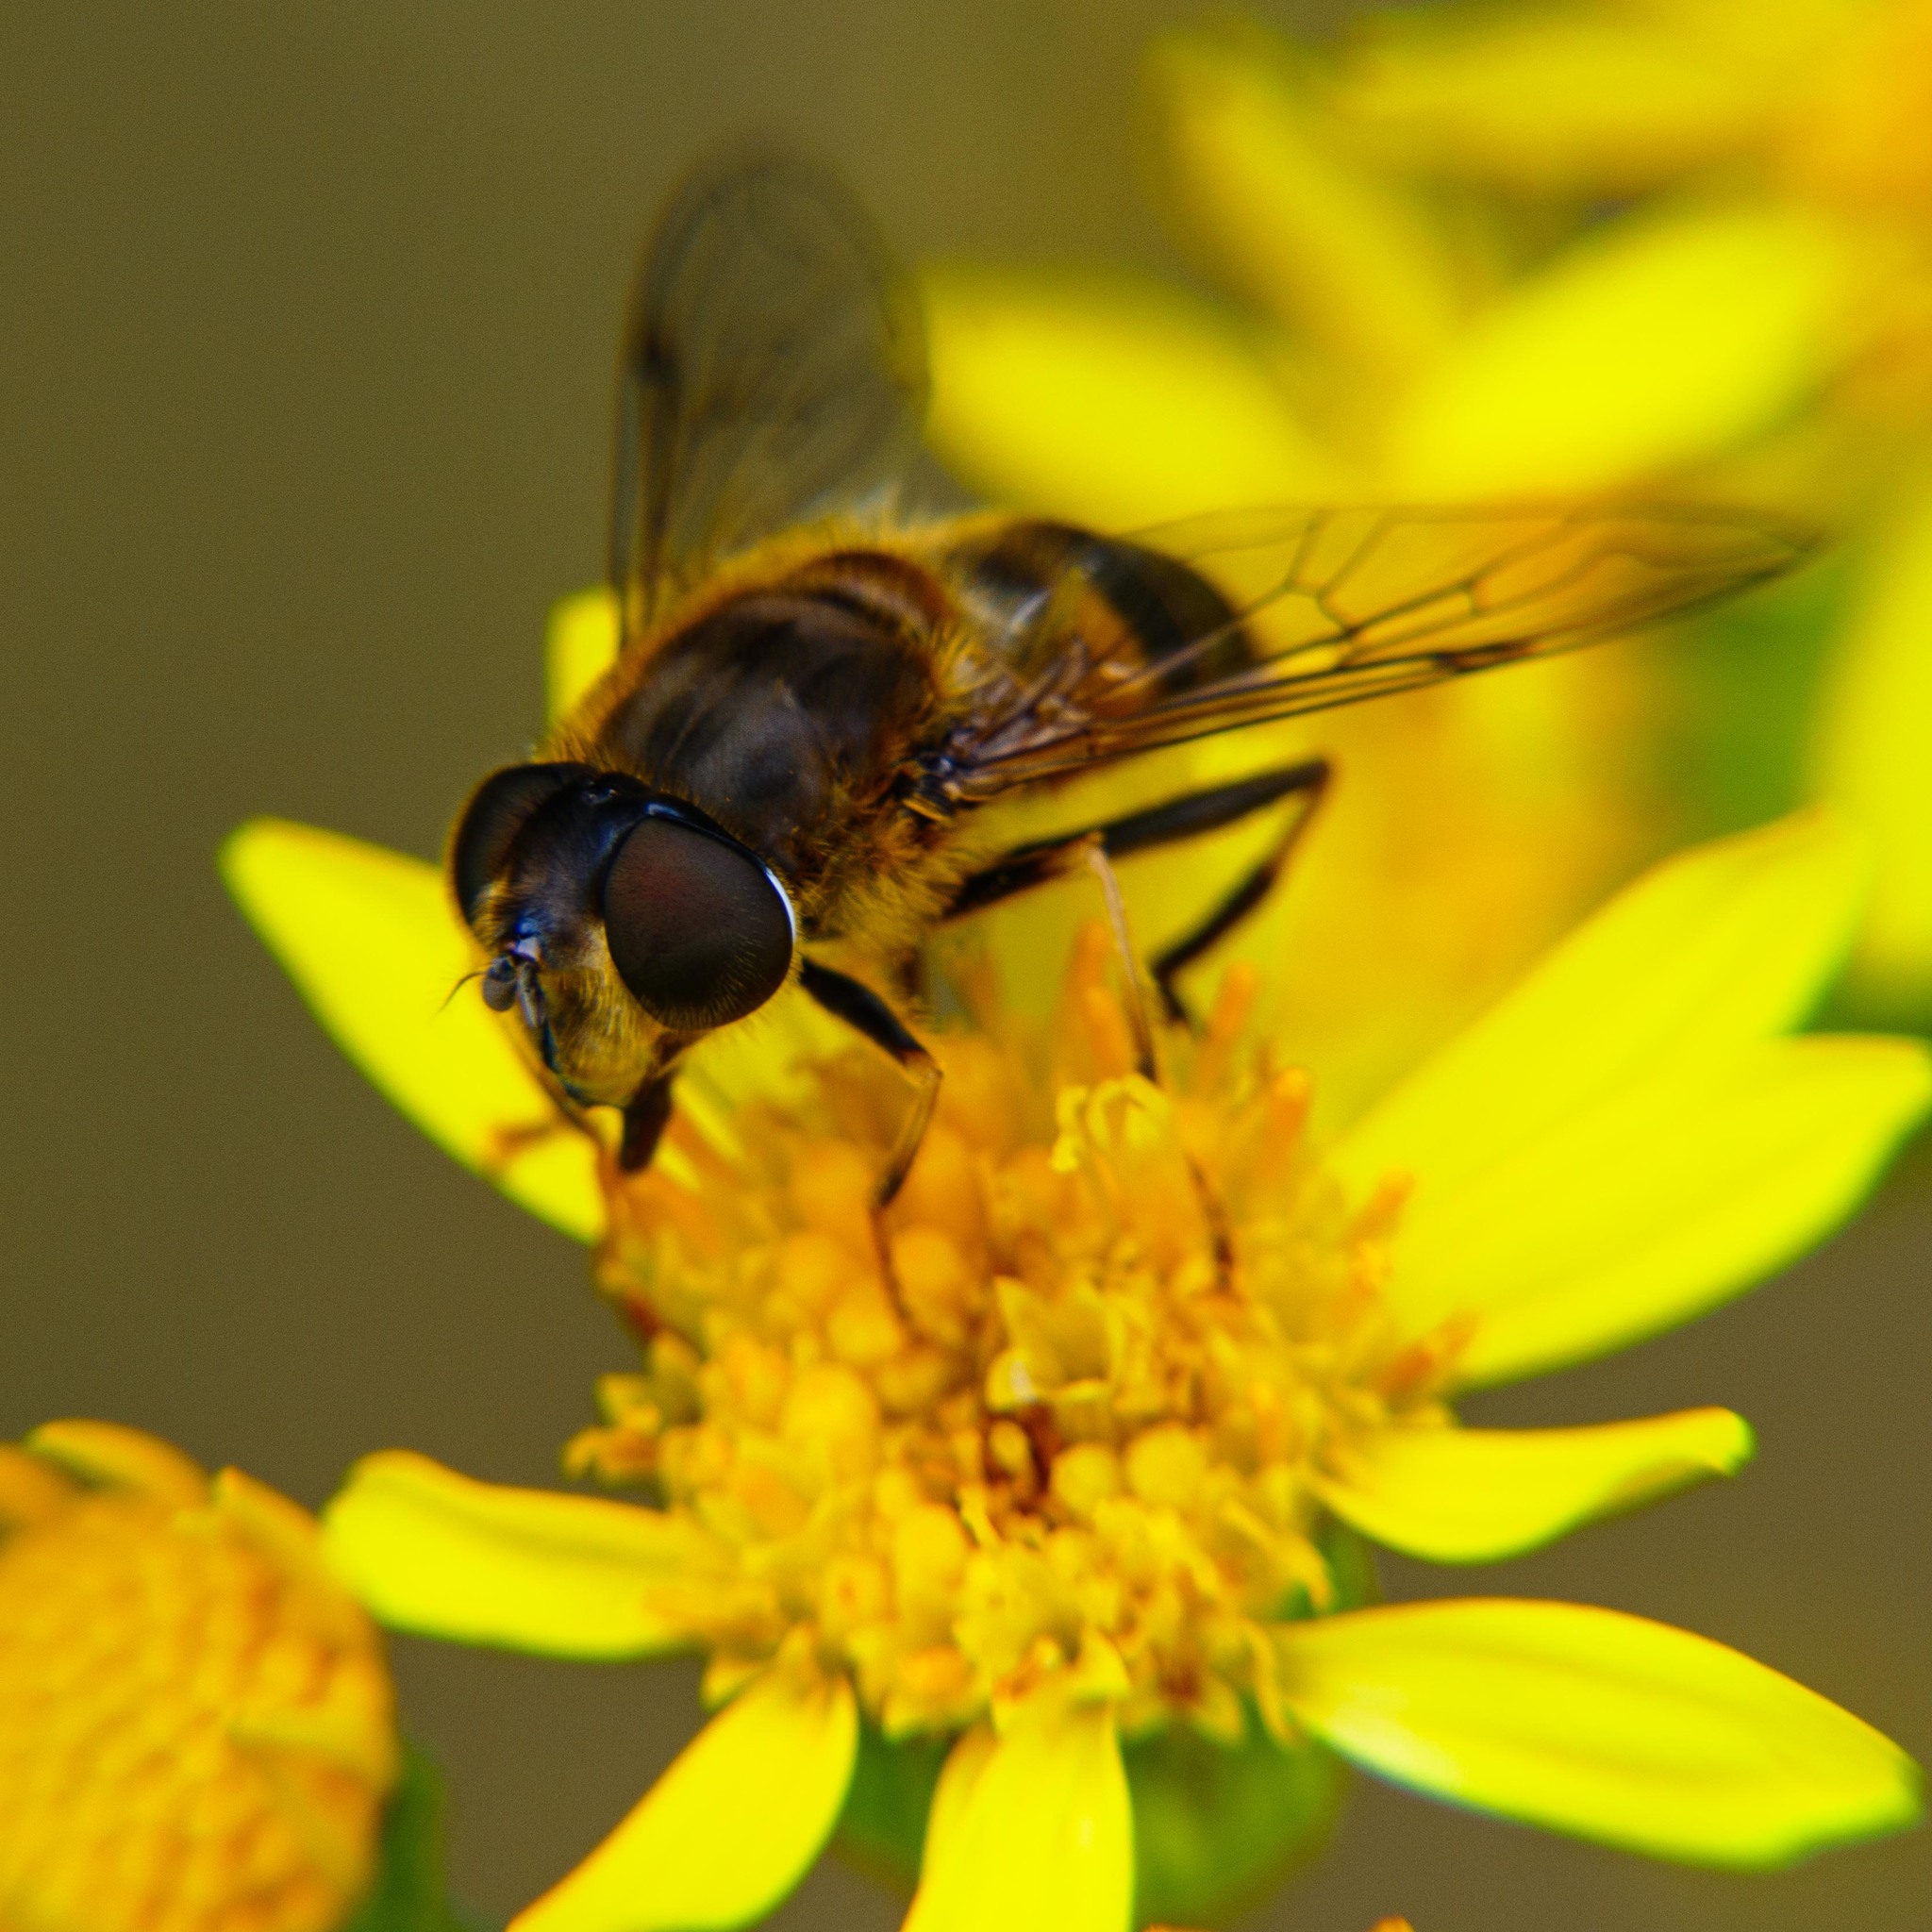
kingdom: Animalia
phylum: Arthropoda
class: Insecta
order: Diptera
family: Syrphidae
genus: Eristalis
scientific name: Eristalis pertinax
